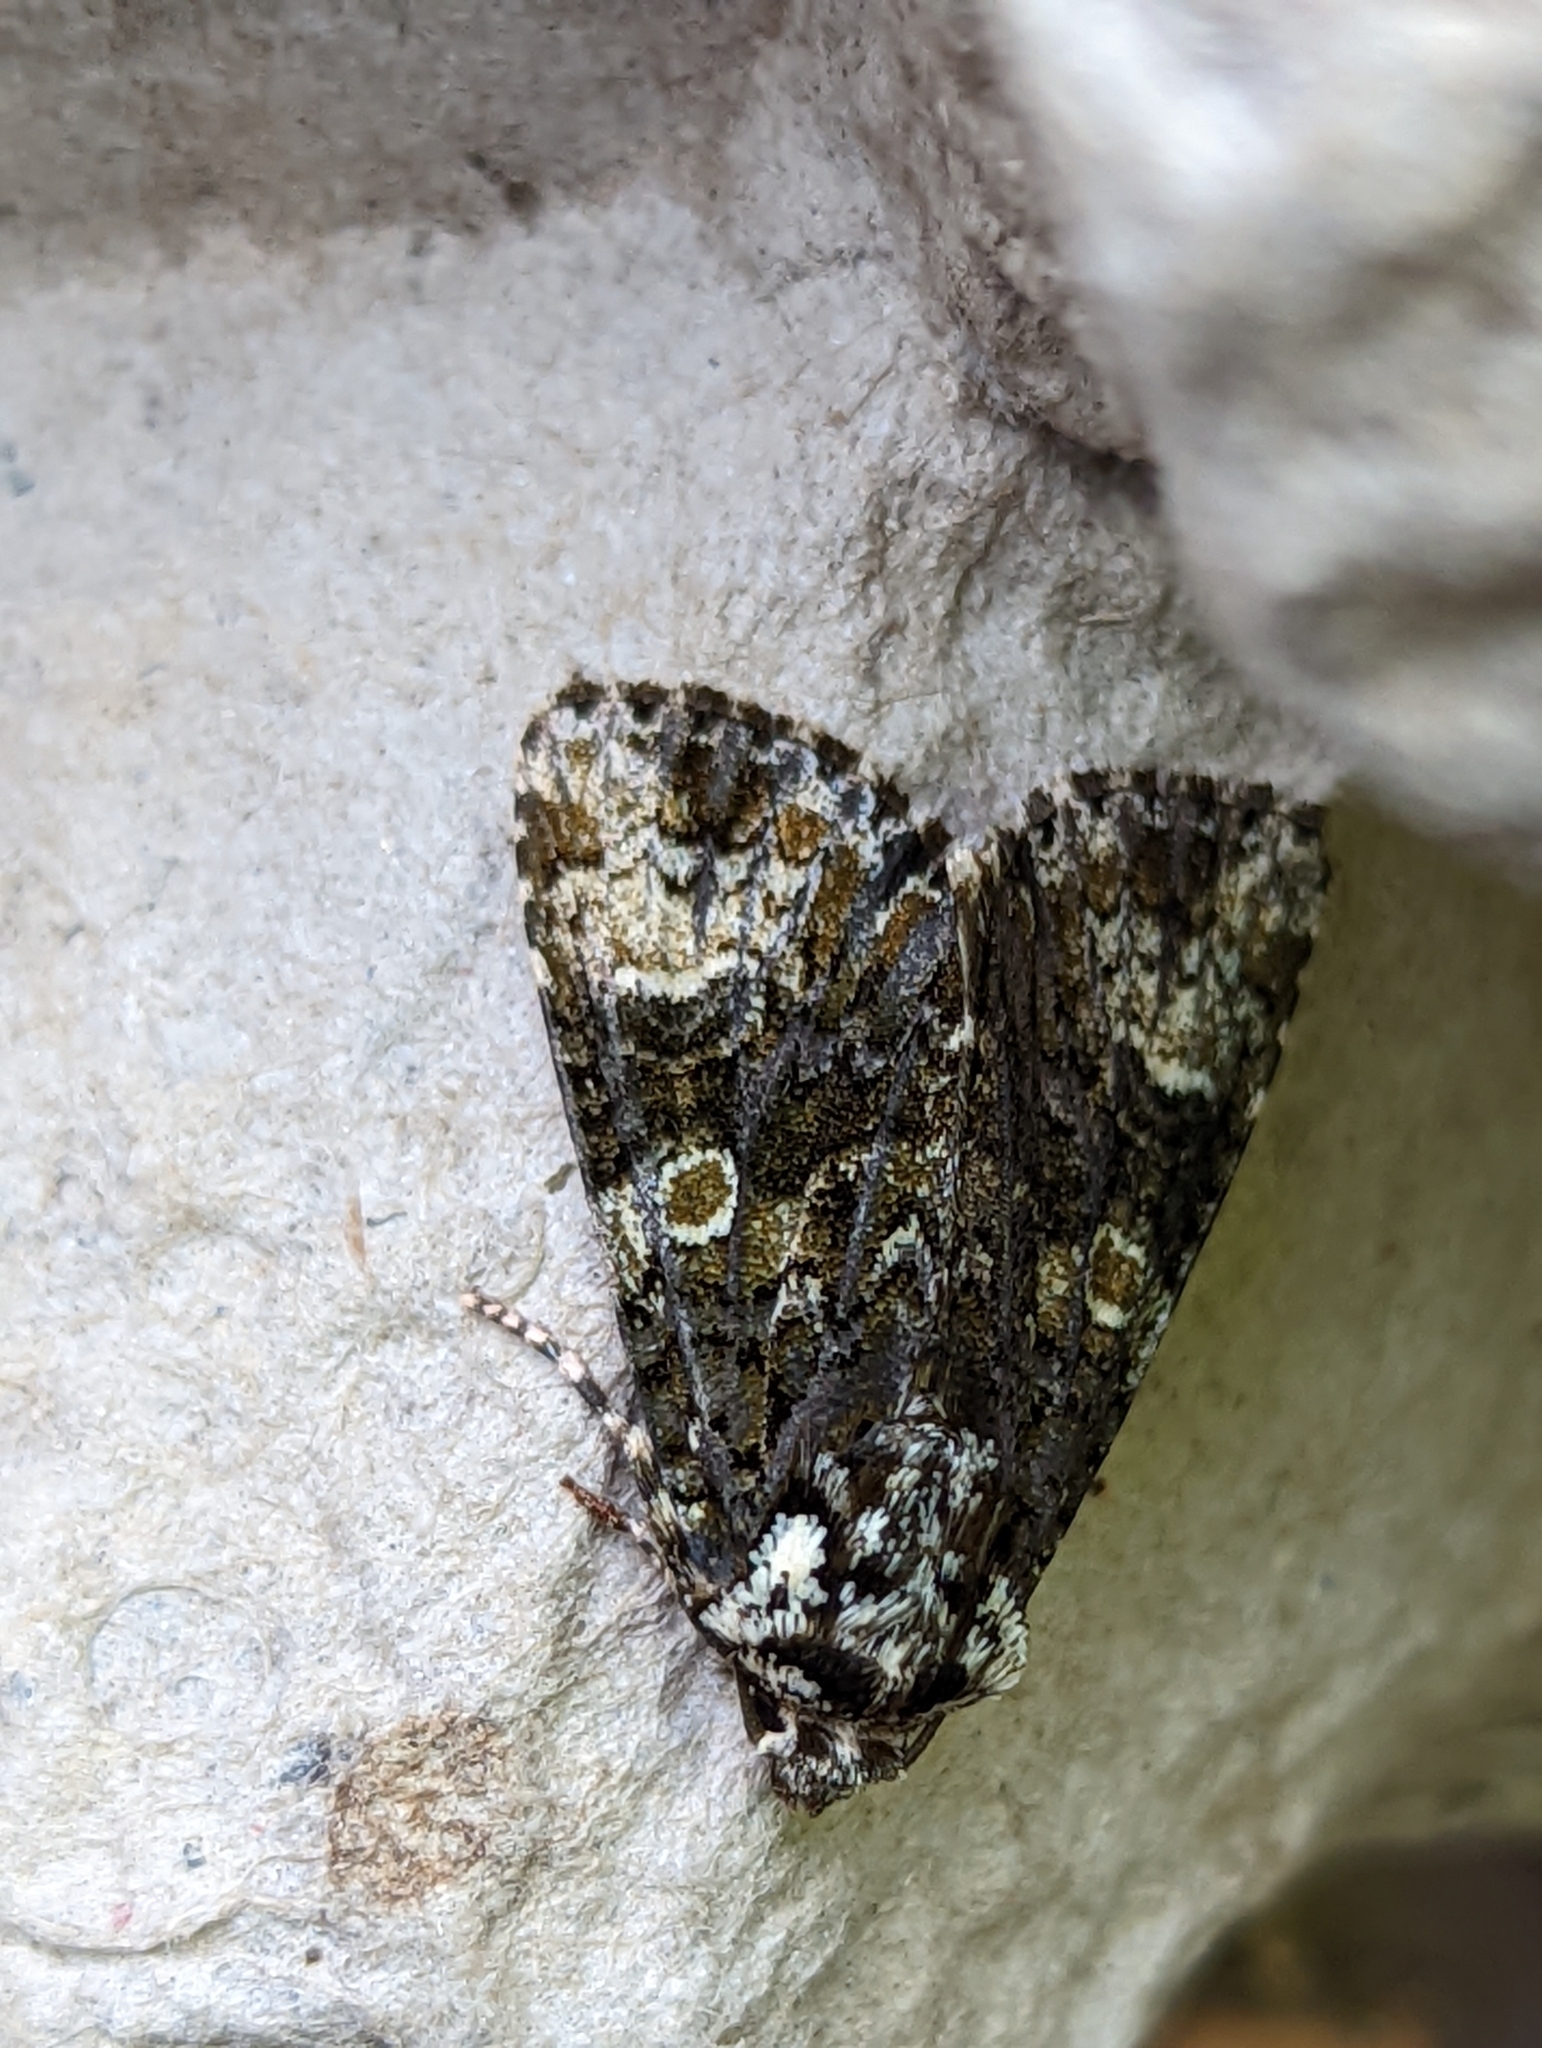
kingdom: Animalia
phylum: Arthropoda
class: Insecta
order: Lepidoptera
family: Noctuidae
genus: Craniophora
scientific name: Craniophora ligustri
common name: Coronet
